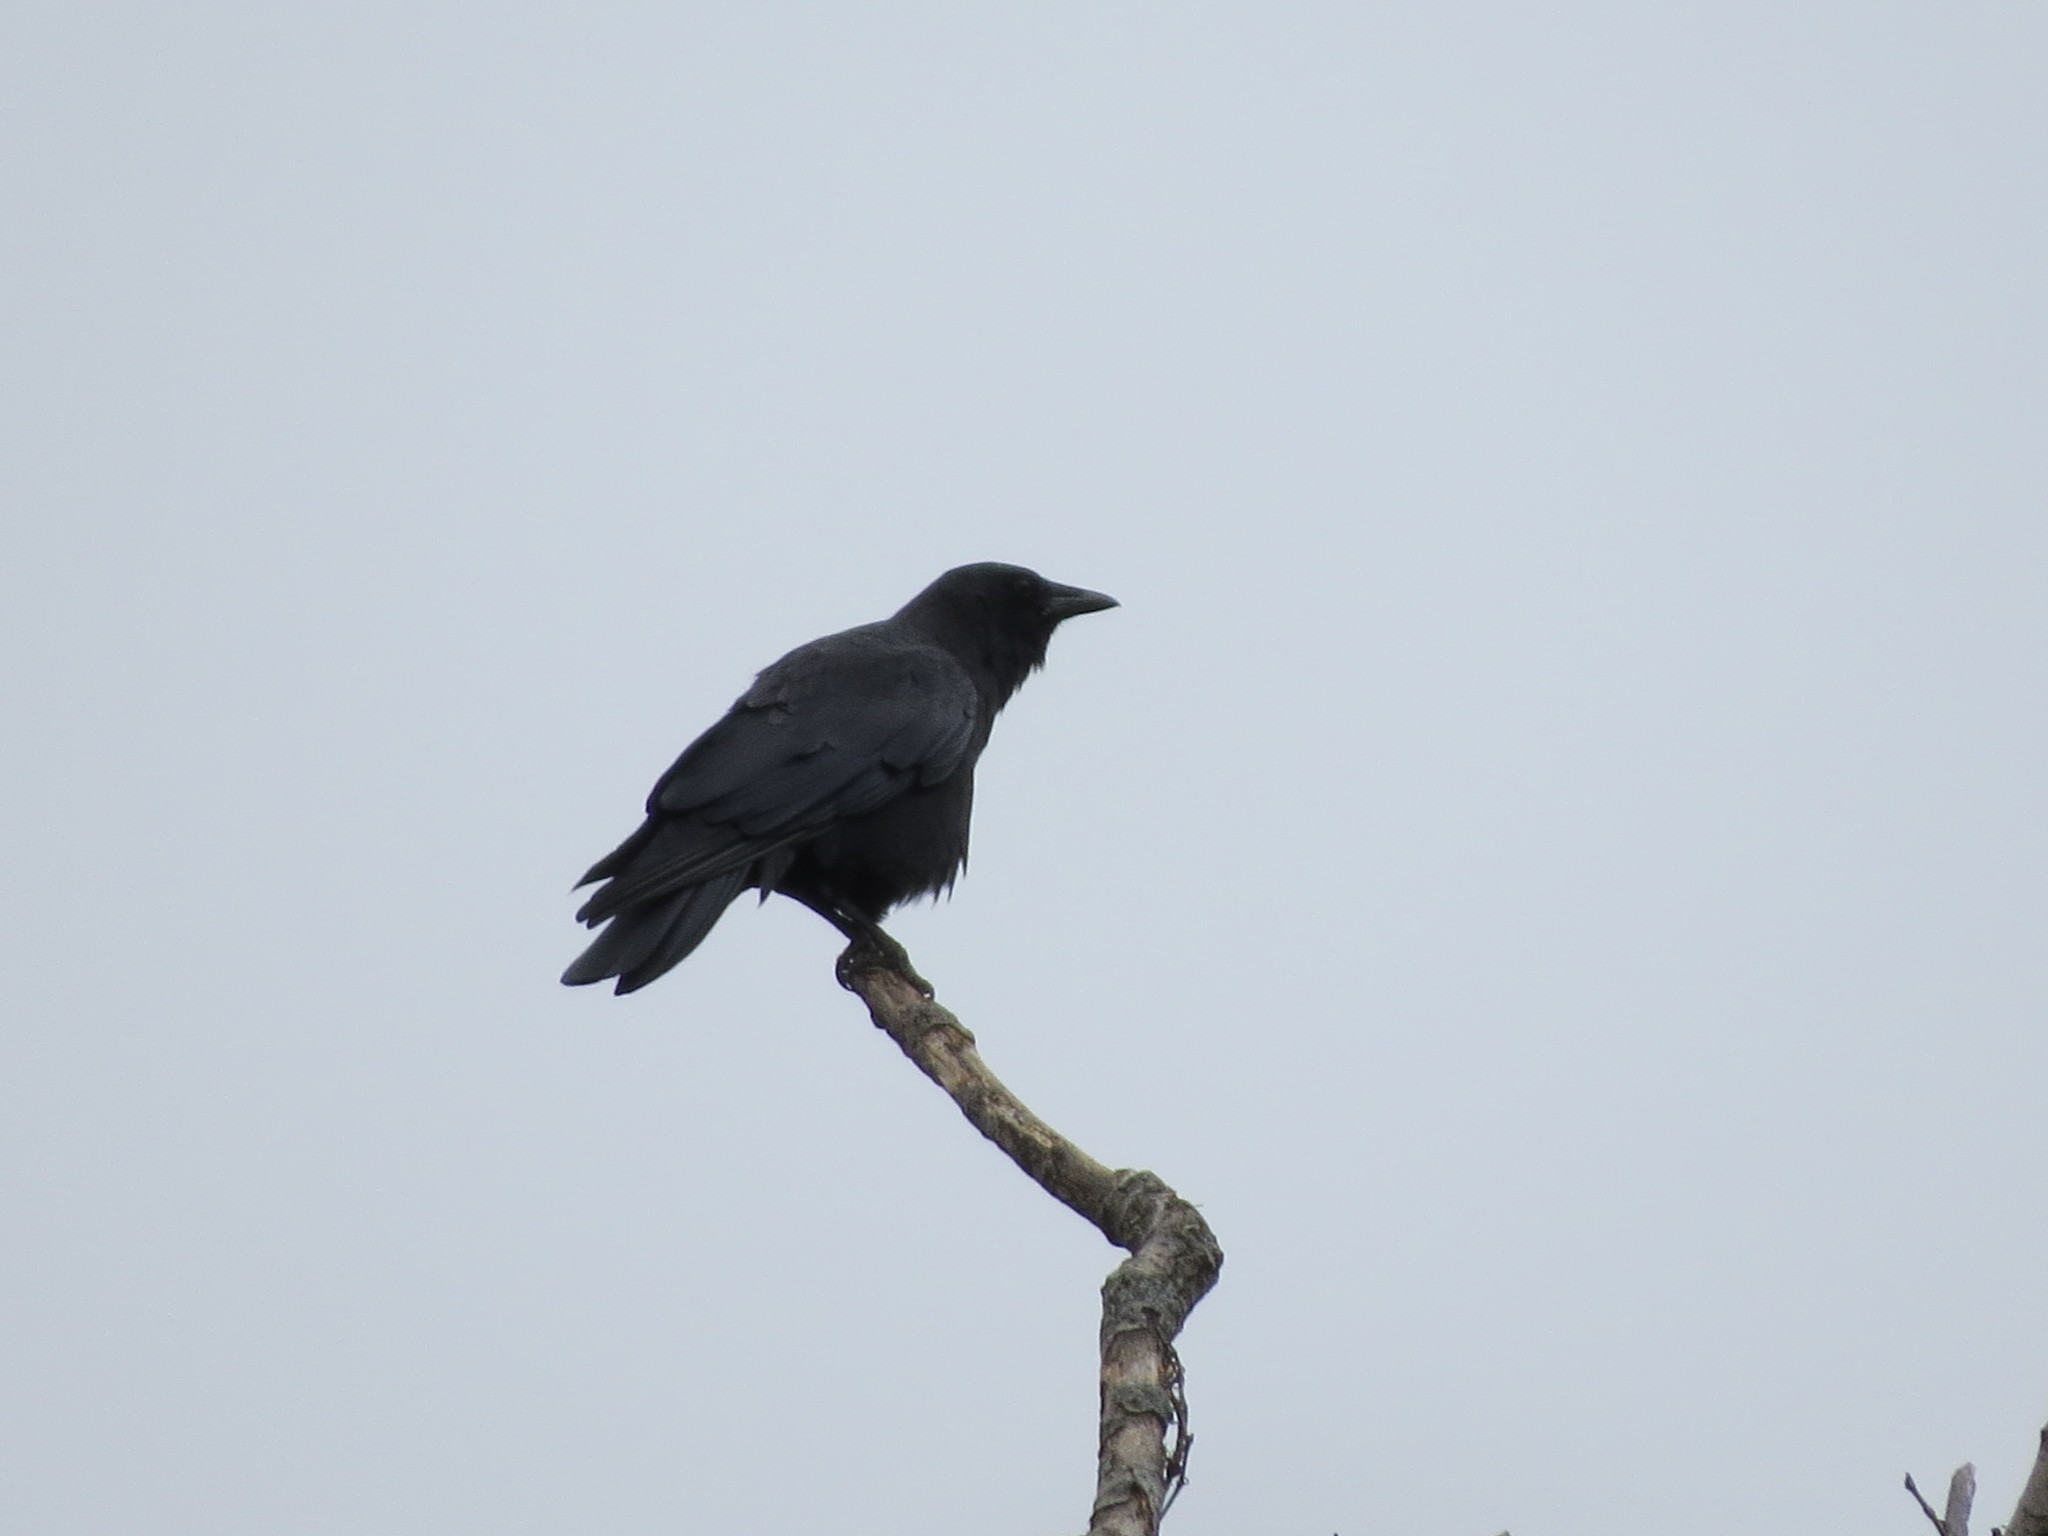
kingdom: Animalia
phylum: Chordata
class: Aves
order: Passeriformes
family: Corvidae
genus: Corvus
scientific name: Corvus brachyrhynchos
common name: American crow
